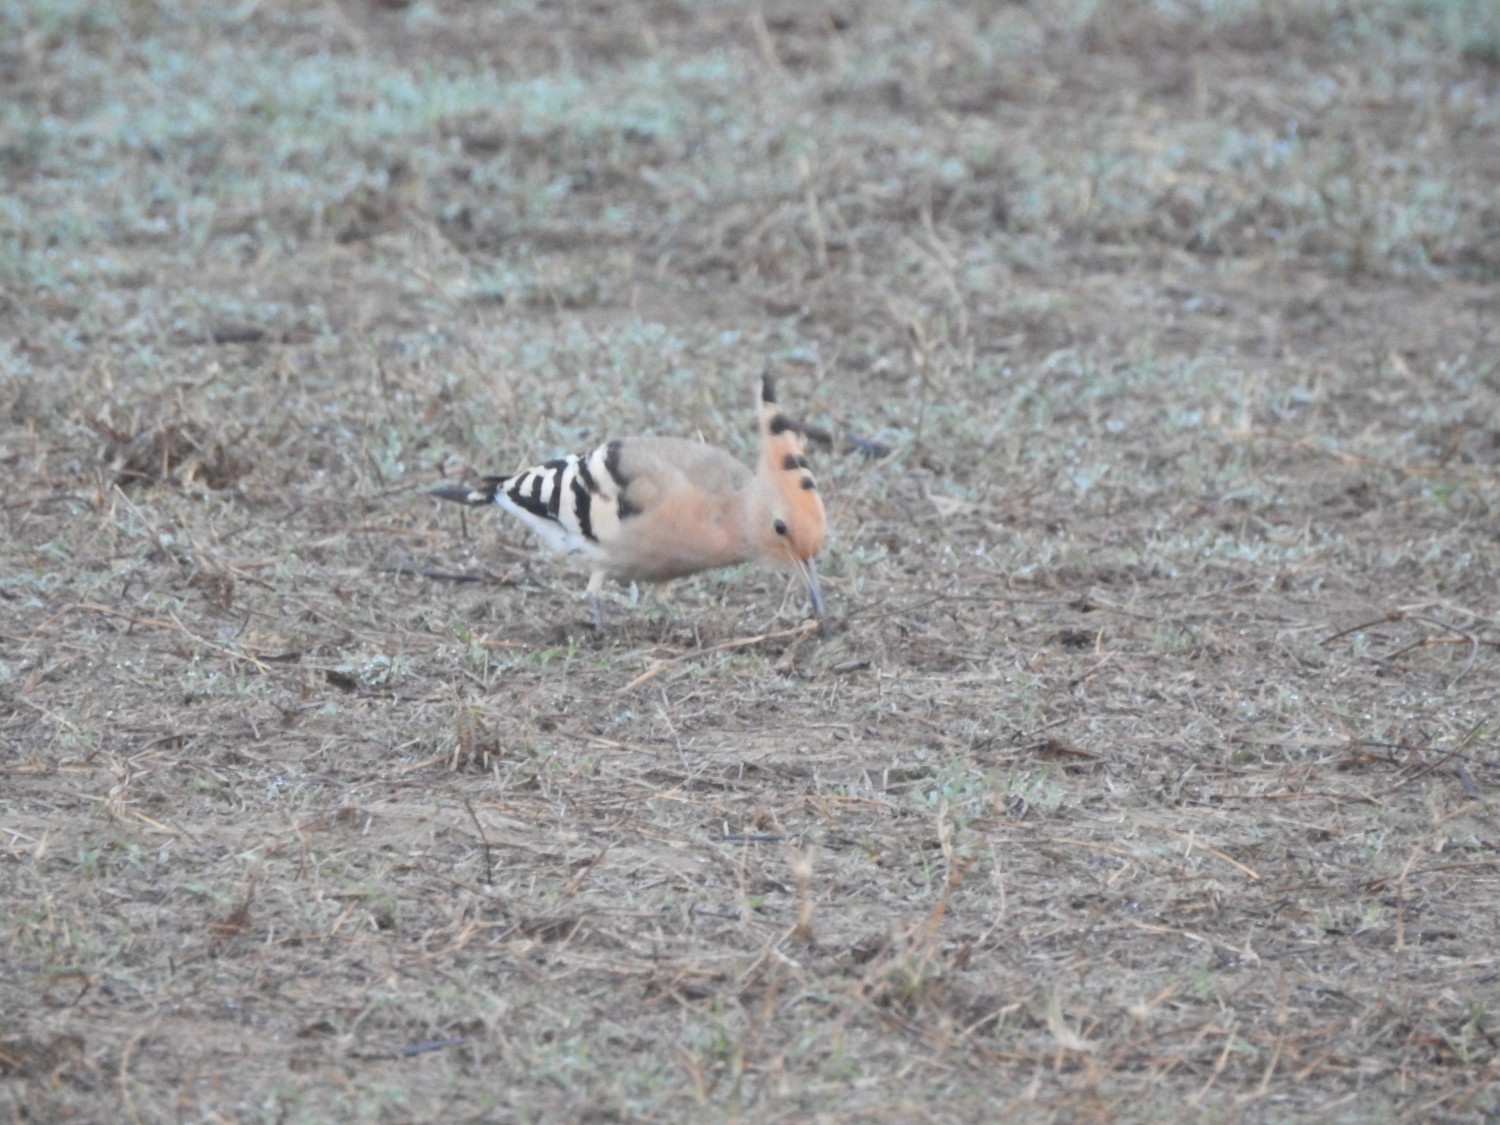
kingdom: Animalia
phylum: Chordata
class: Aves
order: Bucerotiformes
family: Upupidae
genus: Upupa
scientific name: Upupa epops
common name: Eurasian hoopoe
